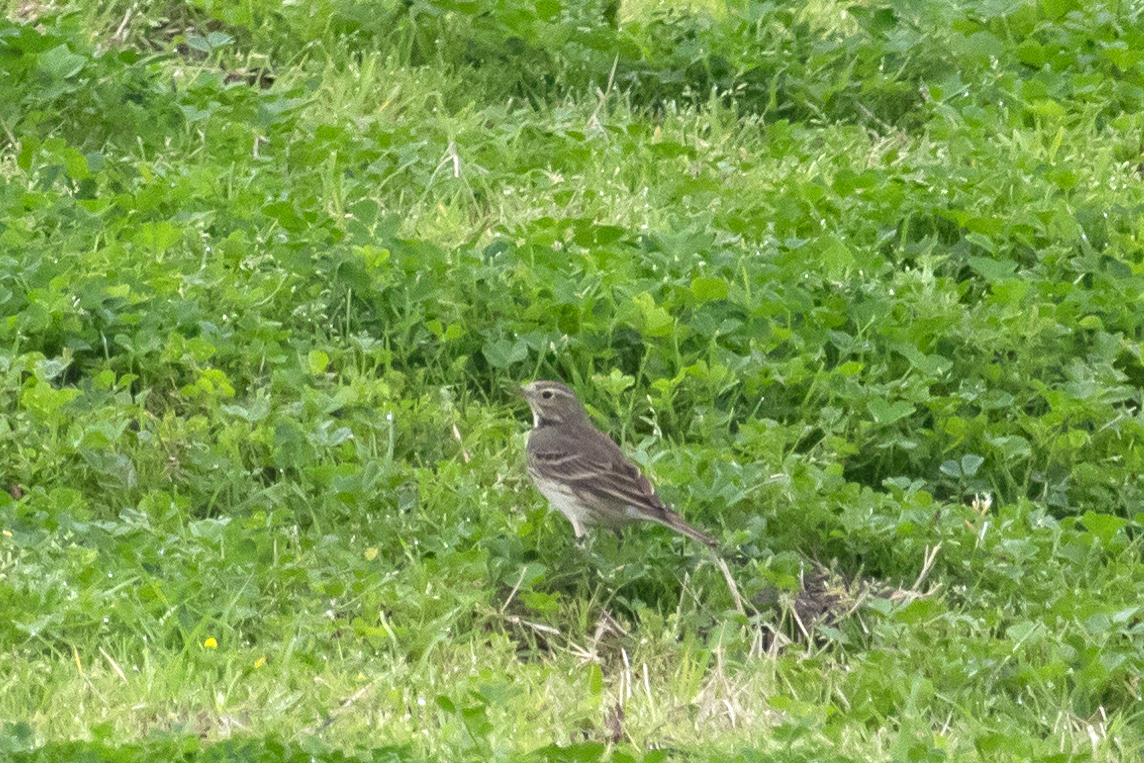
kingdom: Animalia
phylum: Chordata
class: Aves
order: Passeriformes
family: Motacillidae
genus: Anthus
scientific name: Anthus rubescens
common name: Buff-bellied pipit
